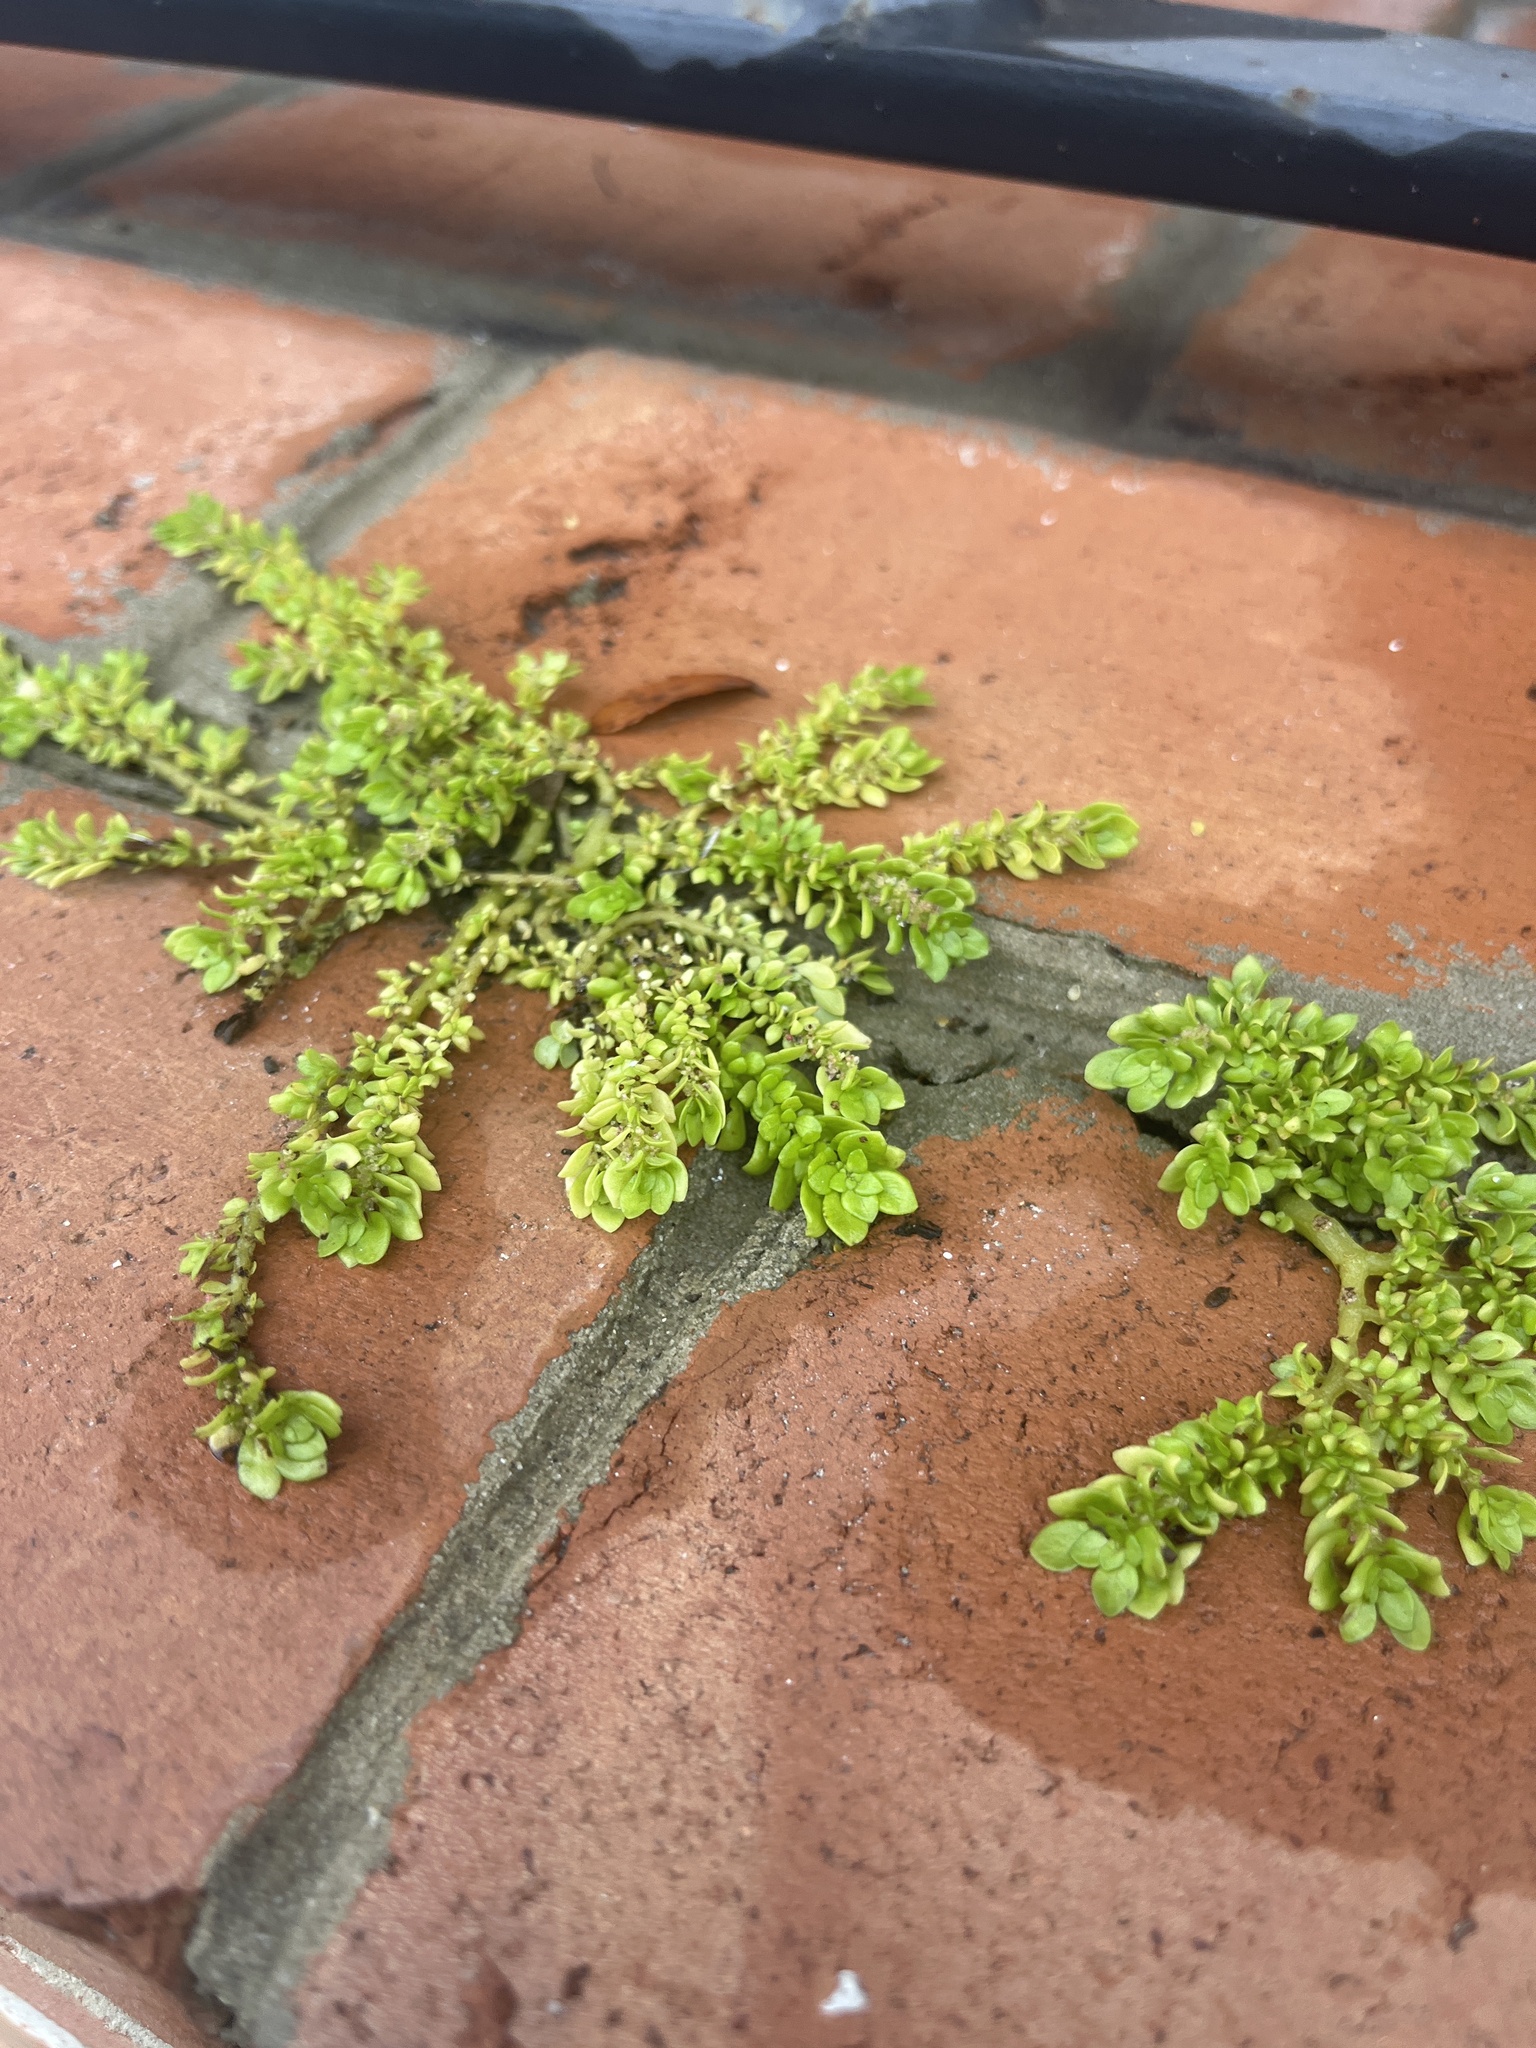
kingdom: Plantae
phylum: Tracheophyta
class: Magnoliopsida
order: Rosales
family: Urticaceae
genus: Pilea
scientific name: Pilea microphylla
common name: Artillery-plant
